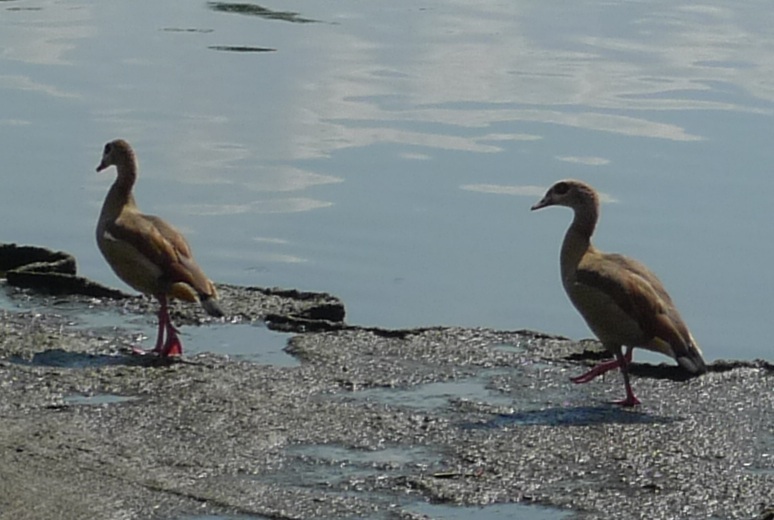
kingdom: Animalia
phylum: Chordata
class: Aves
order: Anseriformes
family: Anatidae
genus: Alopochen
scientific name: Alopochen aegyptiaca
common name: Egyptian goose
